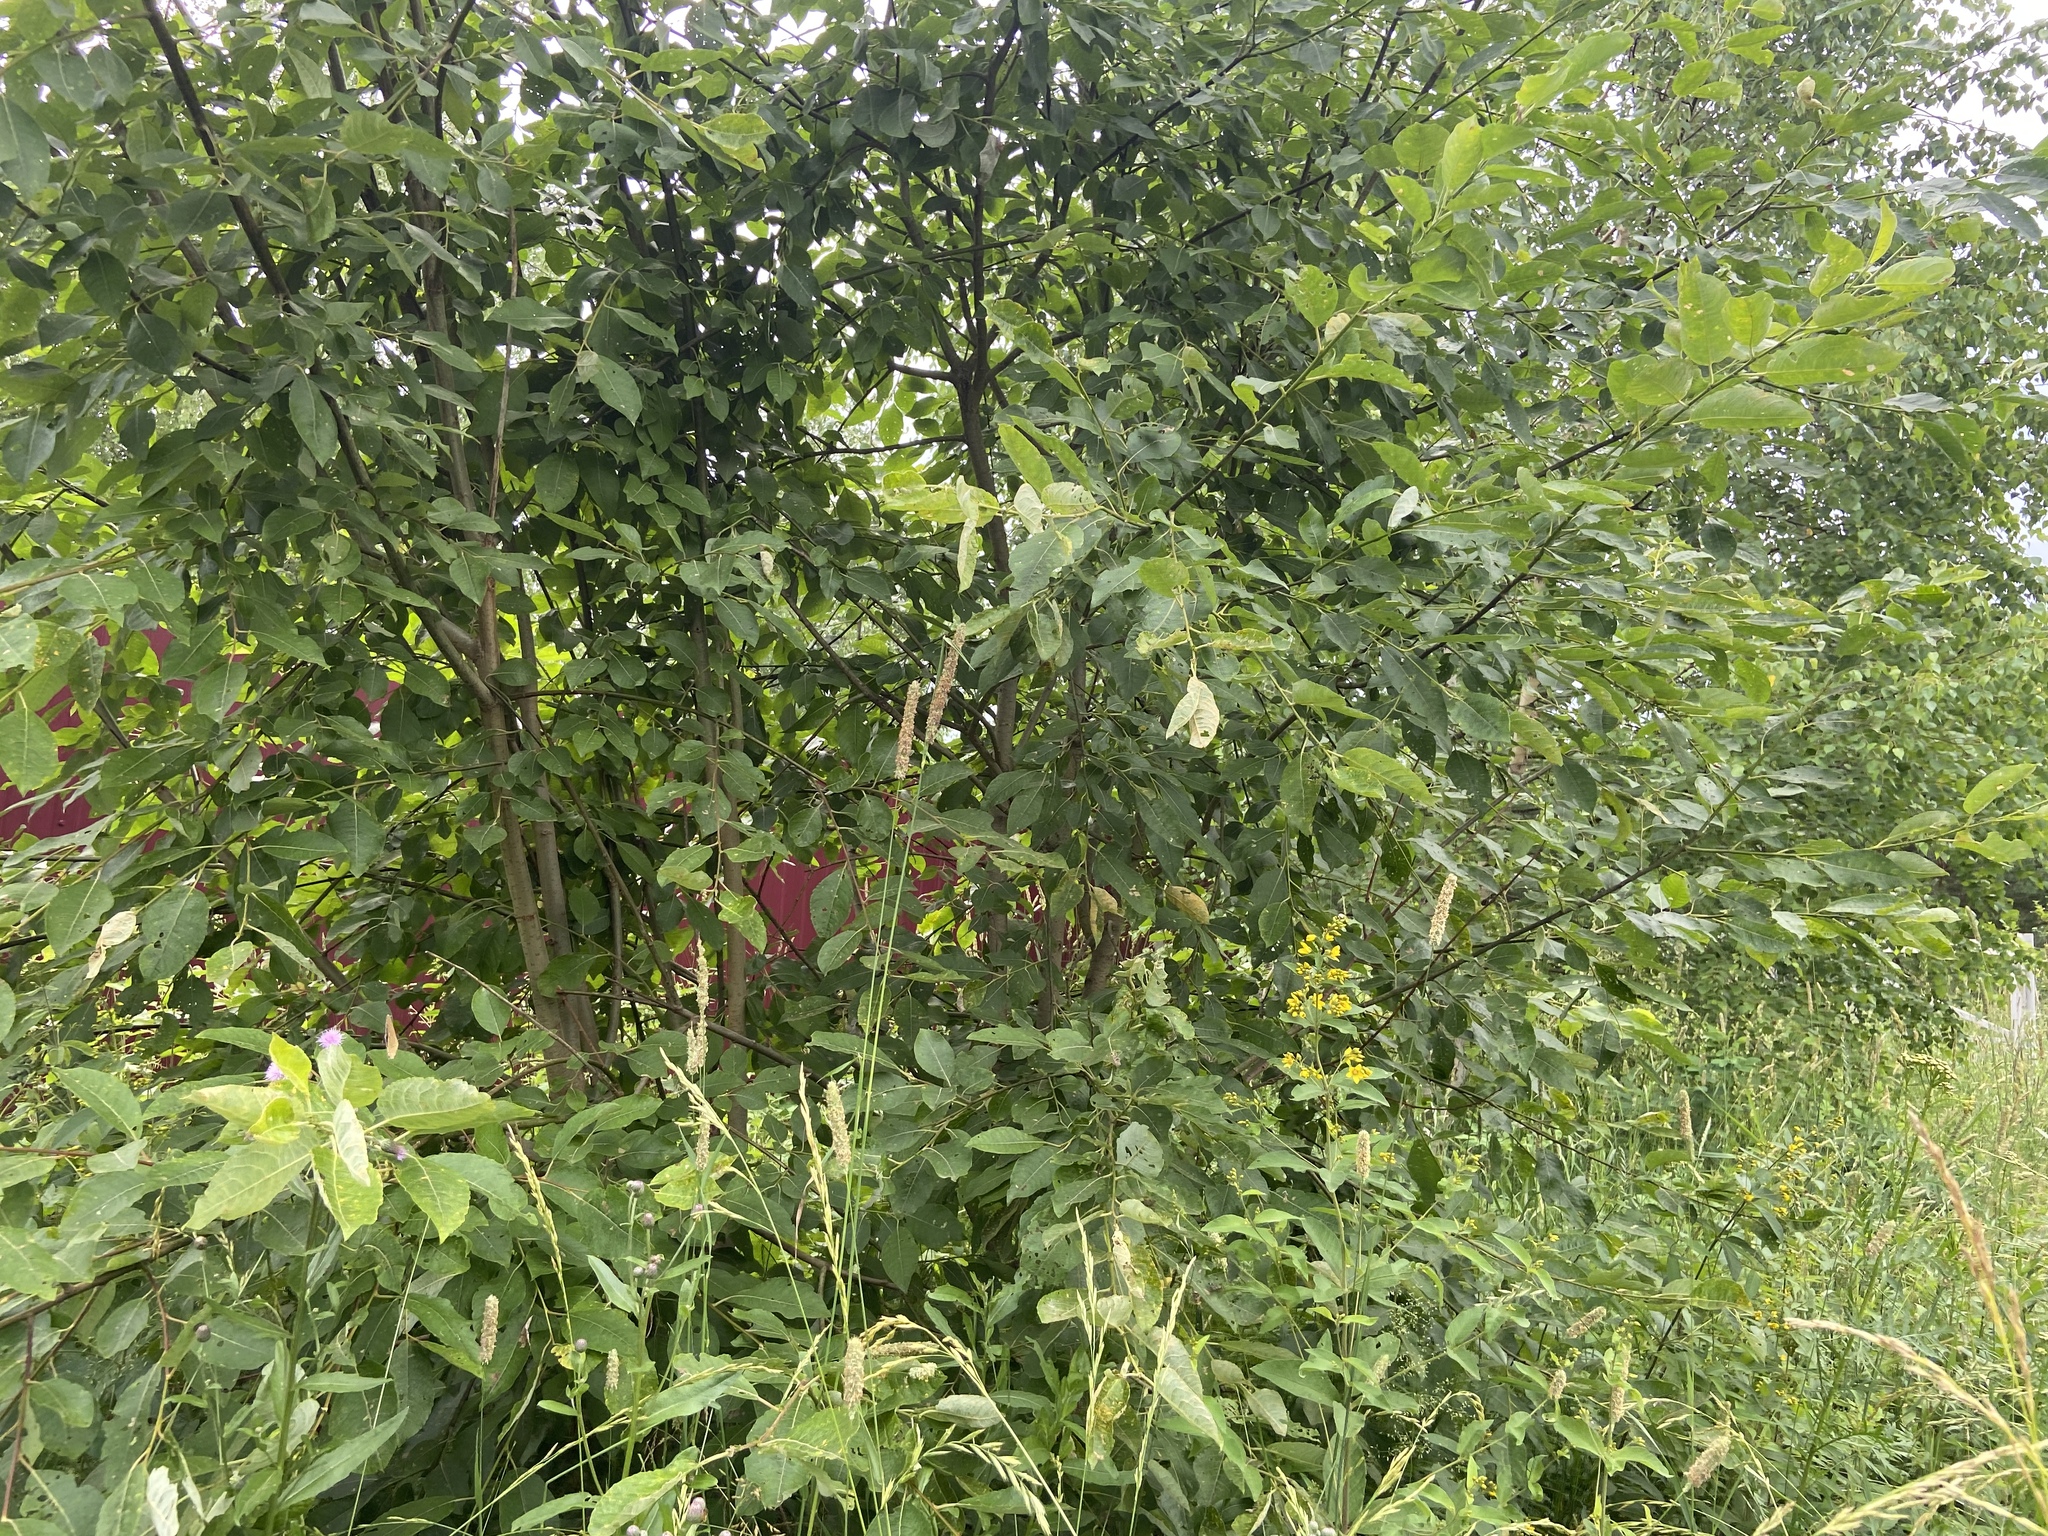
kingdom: Plantae
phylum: Tracheophyta
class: Magnoliopsida
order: Malpighiales
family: Salicaceae
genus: Salix
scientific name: Salix caprea
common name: Goat willow
